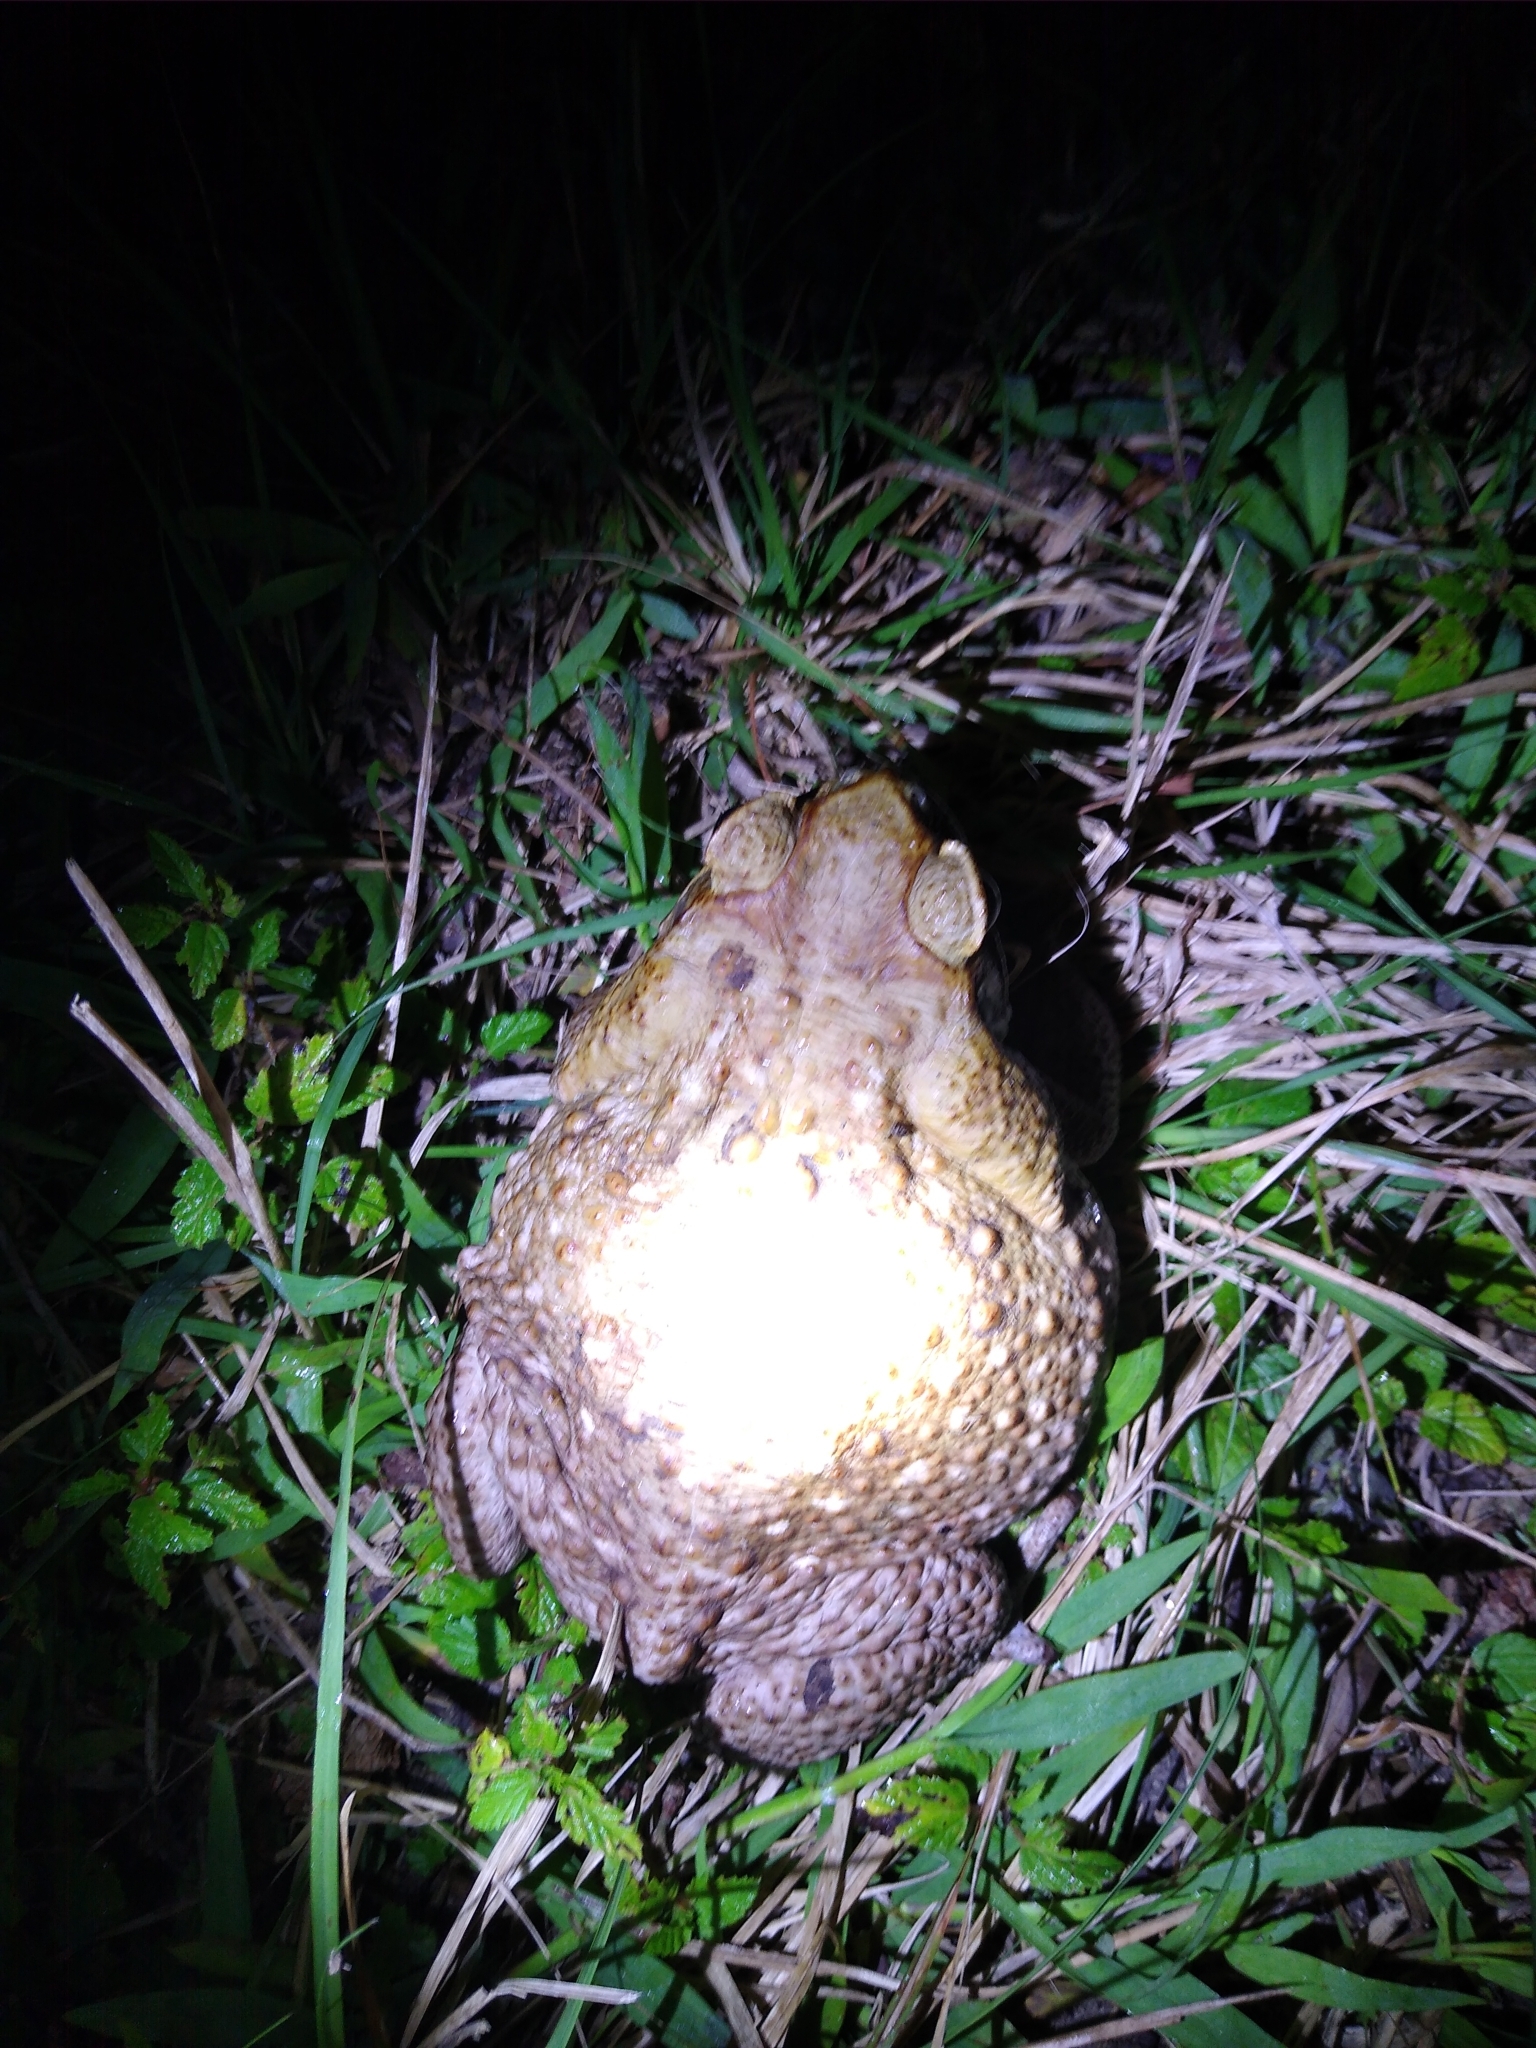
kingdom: Animalia
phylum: Chordata
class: Amphibia
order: Anura
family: Bufonidae
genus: Rhinella
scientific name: Rhinella marina
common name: Cane toad
